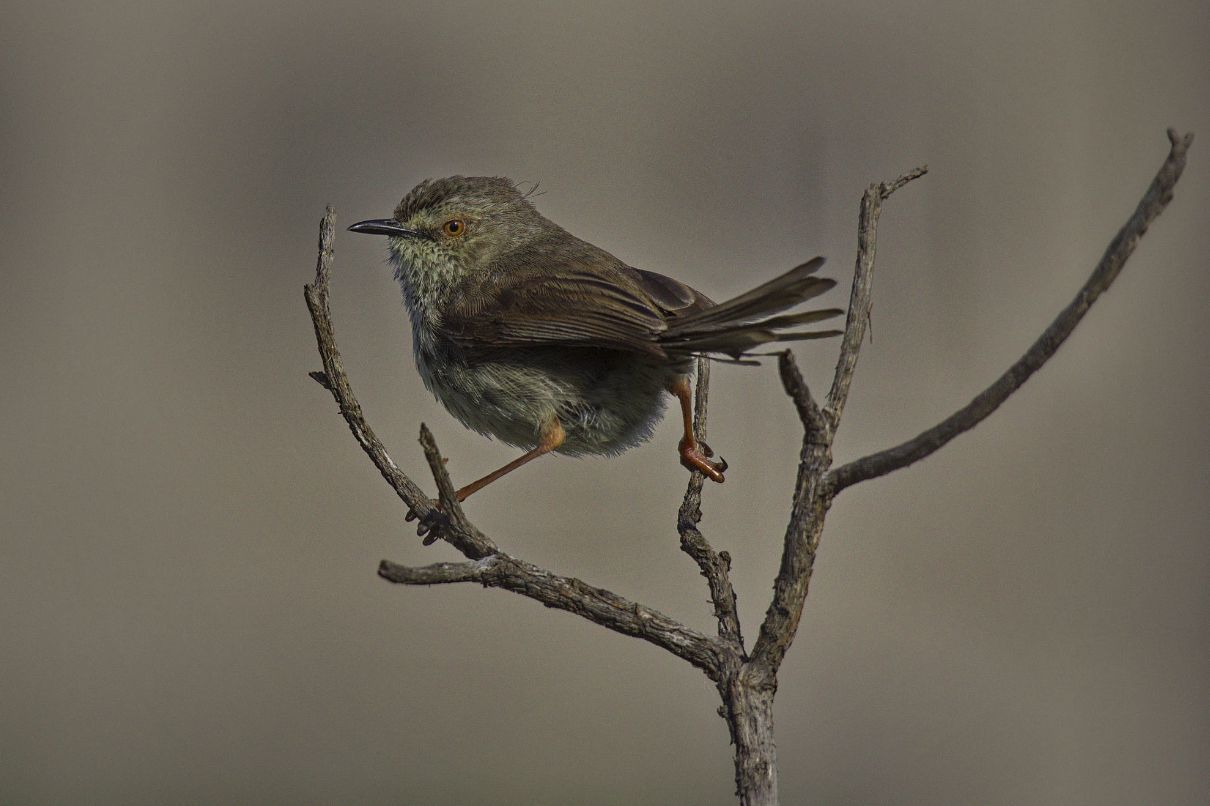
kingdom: Animalia
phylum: Chordata
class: Aves
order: Passeriformes
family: Cisticolidae
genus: Prinia
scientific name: Prinia maculosa
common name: Karoo prinia
